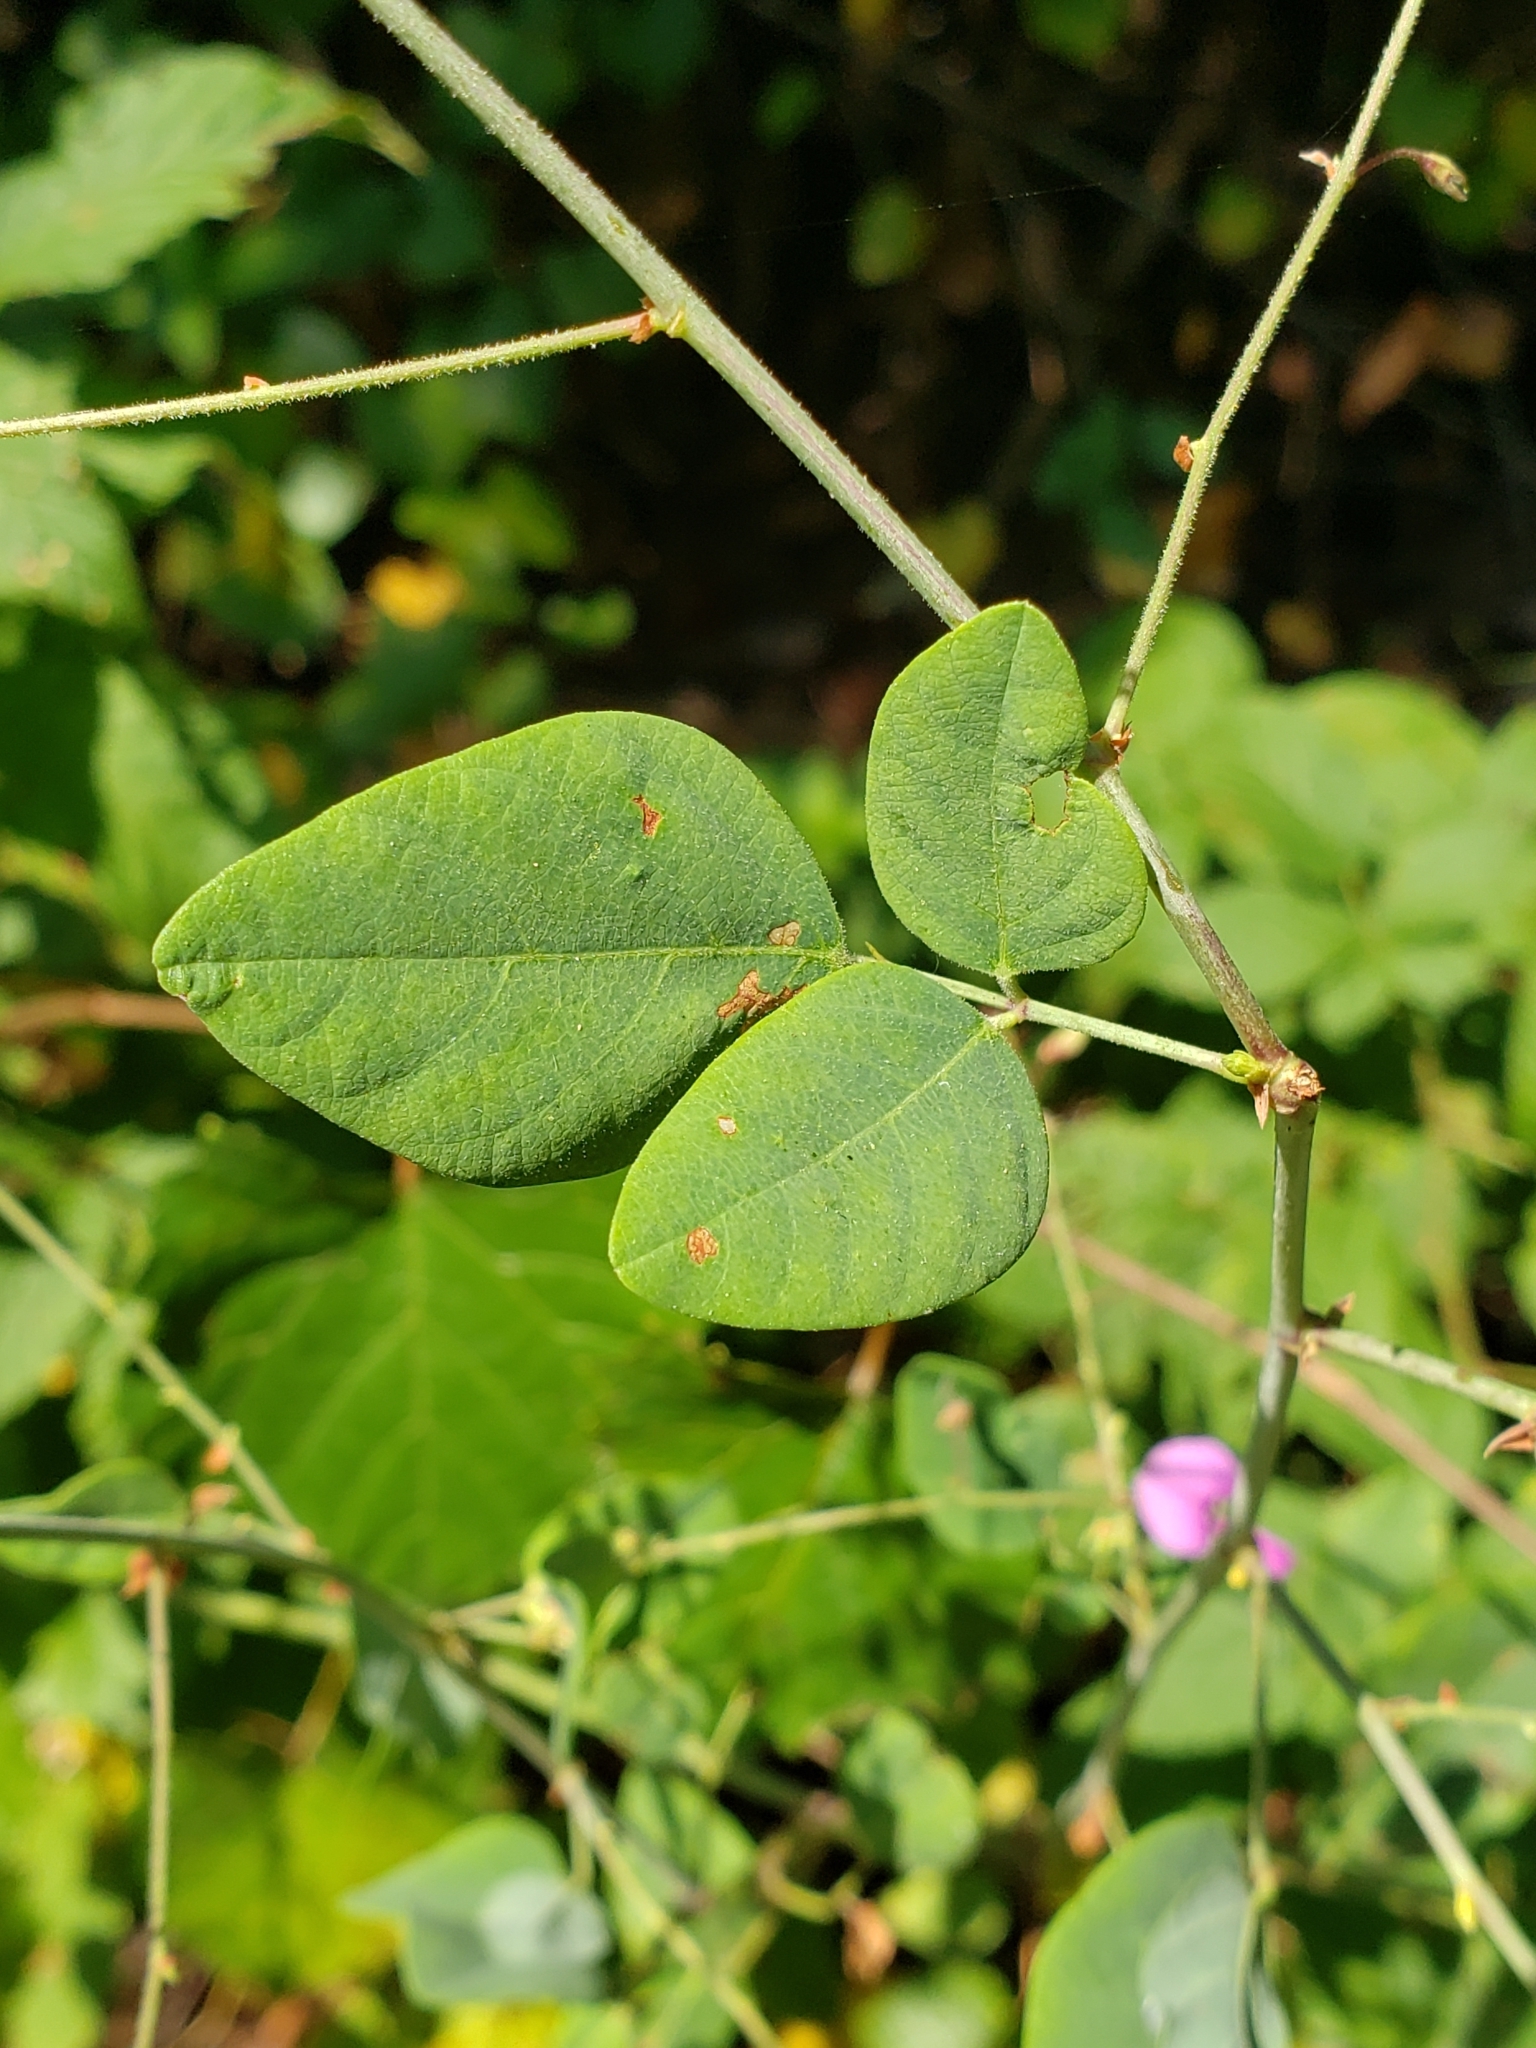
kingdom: Plantae
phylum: Tracheophyta
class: Magnoliopsida
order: Fabales
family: Fabaceae
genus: Desmodium
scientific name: Desmodium laevigatum
